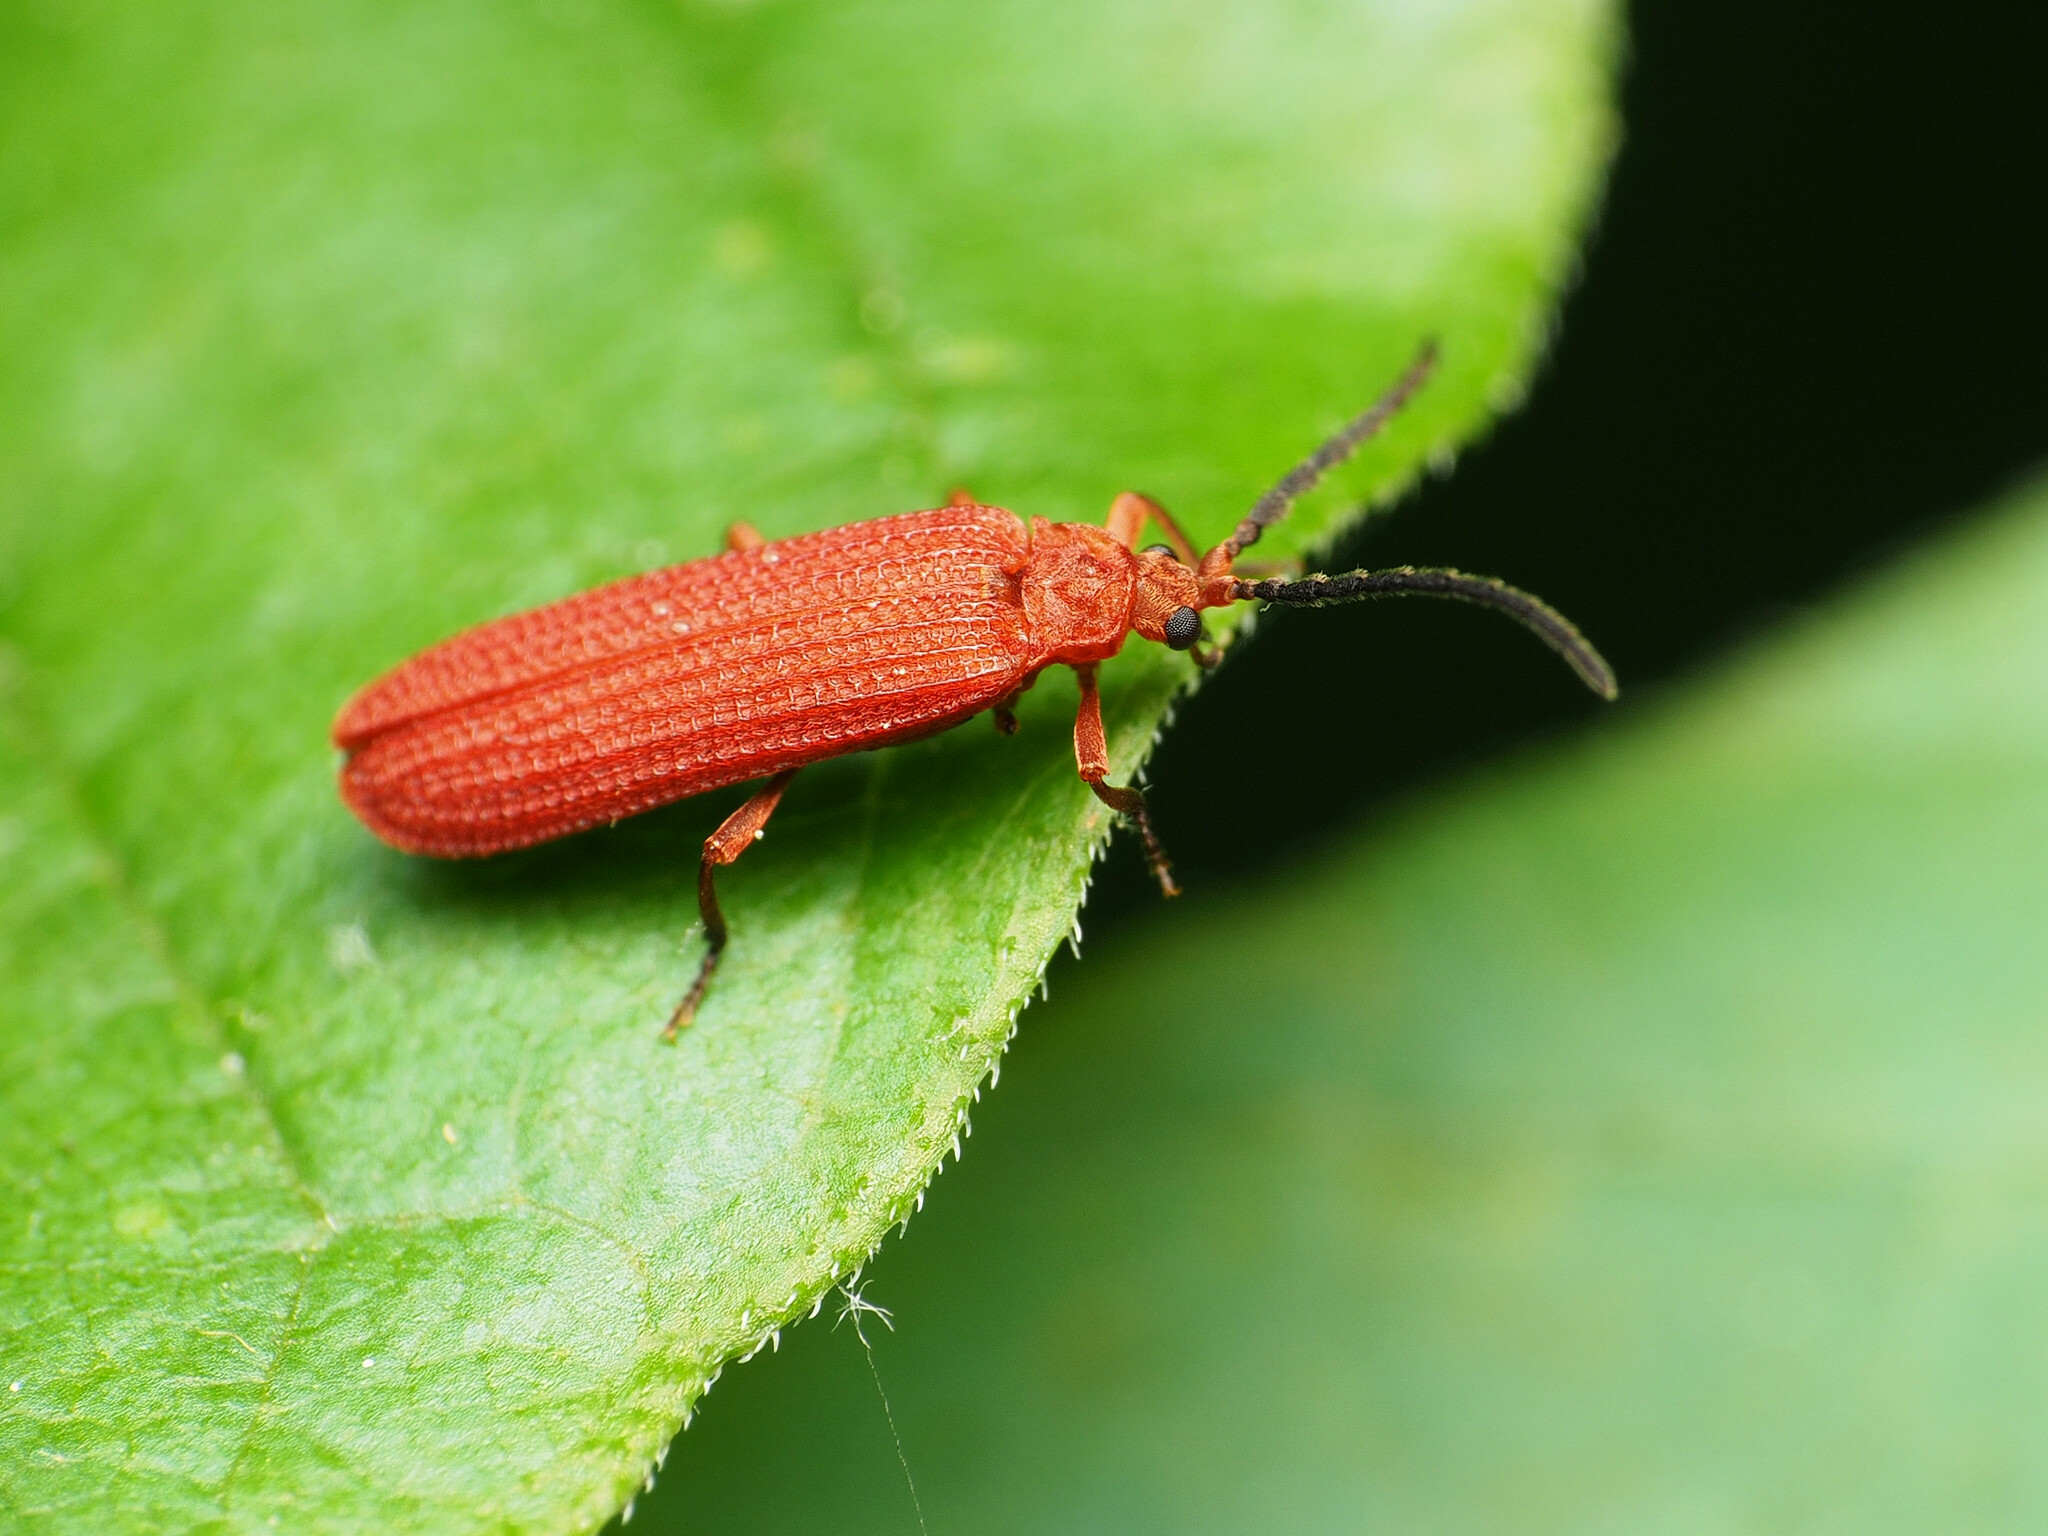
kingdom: Animalia
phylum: Arthropoda
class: Insecta
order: Coleoptera
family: Lycidae
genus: Punicealis
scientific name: Punicealis
